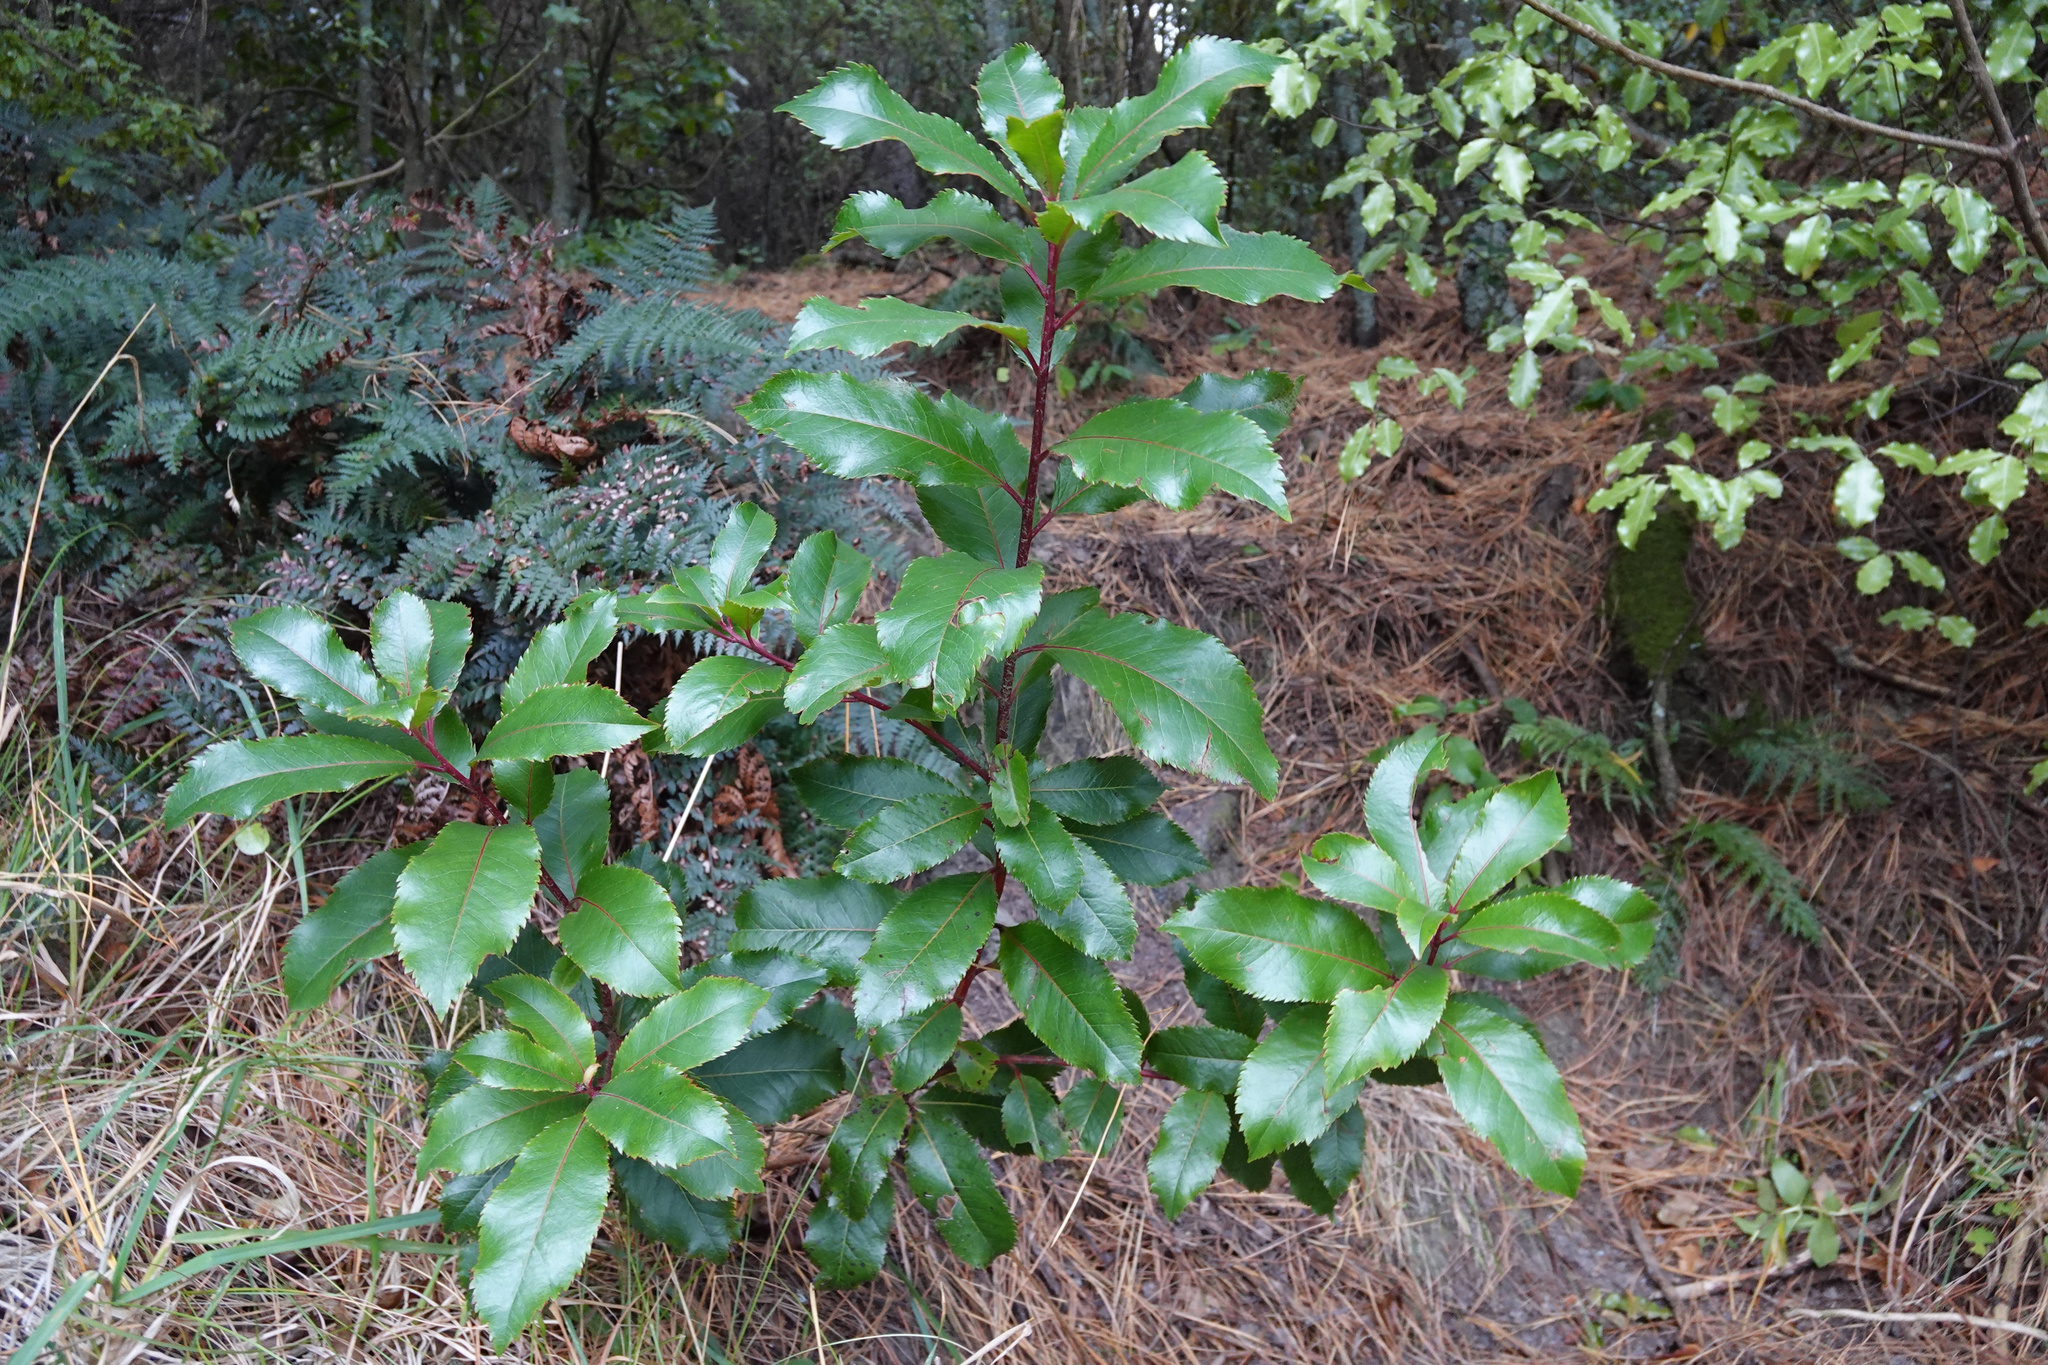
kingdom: Plantae
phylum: Tracheophyta
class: Magnoliopsida
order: Ericales
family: Ericaceae
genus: Arbutus
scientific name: Arbutus unedo
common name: Strawberry-tree
